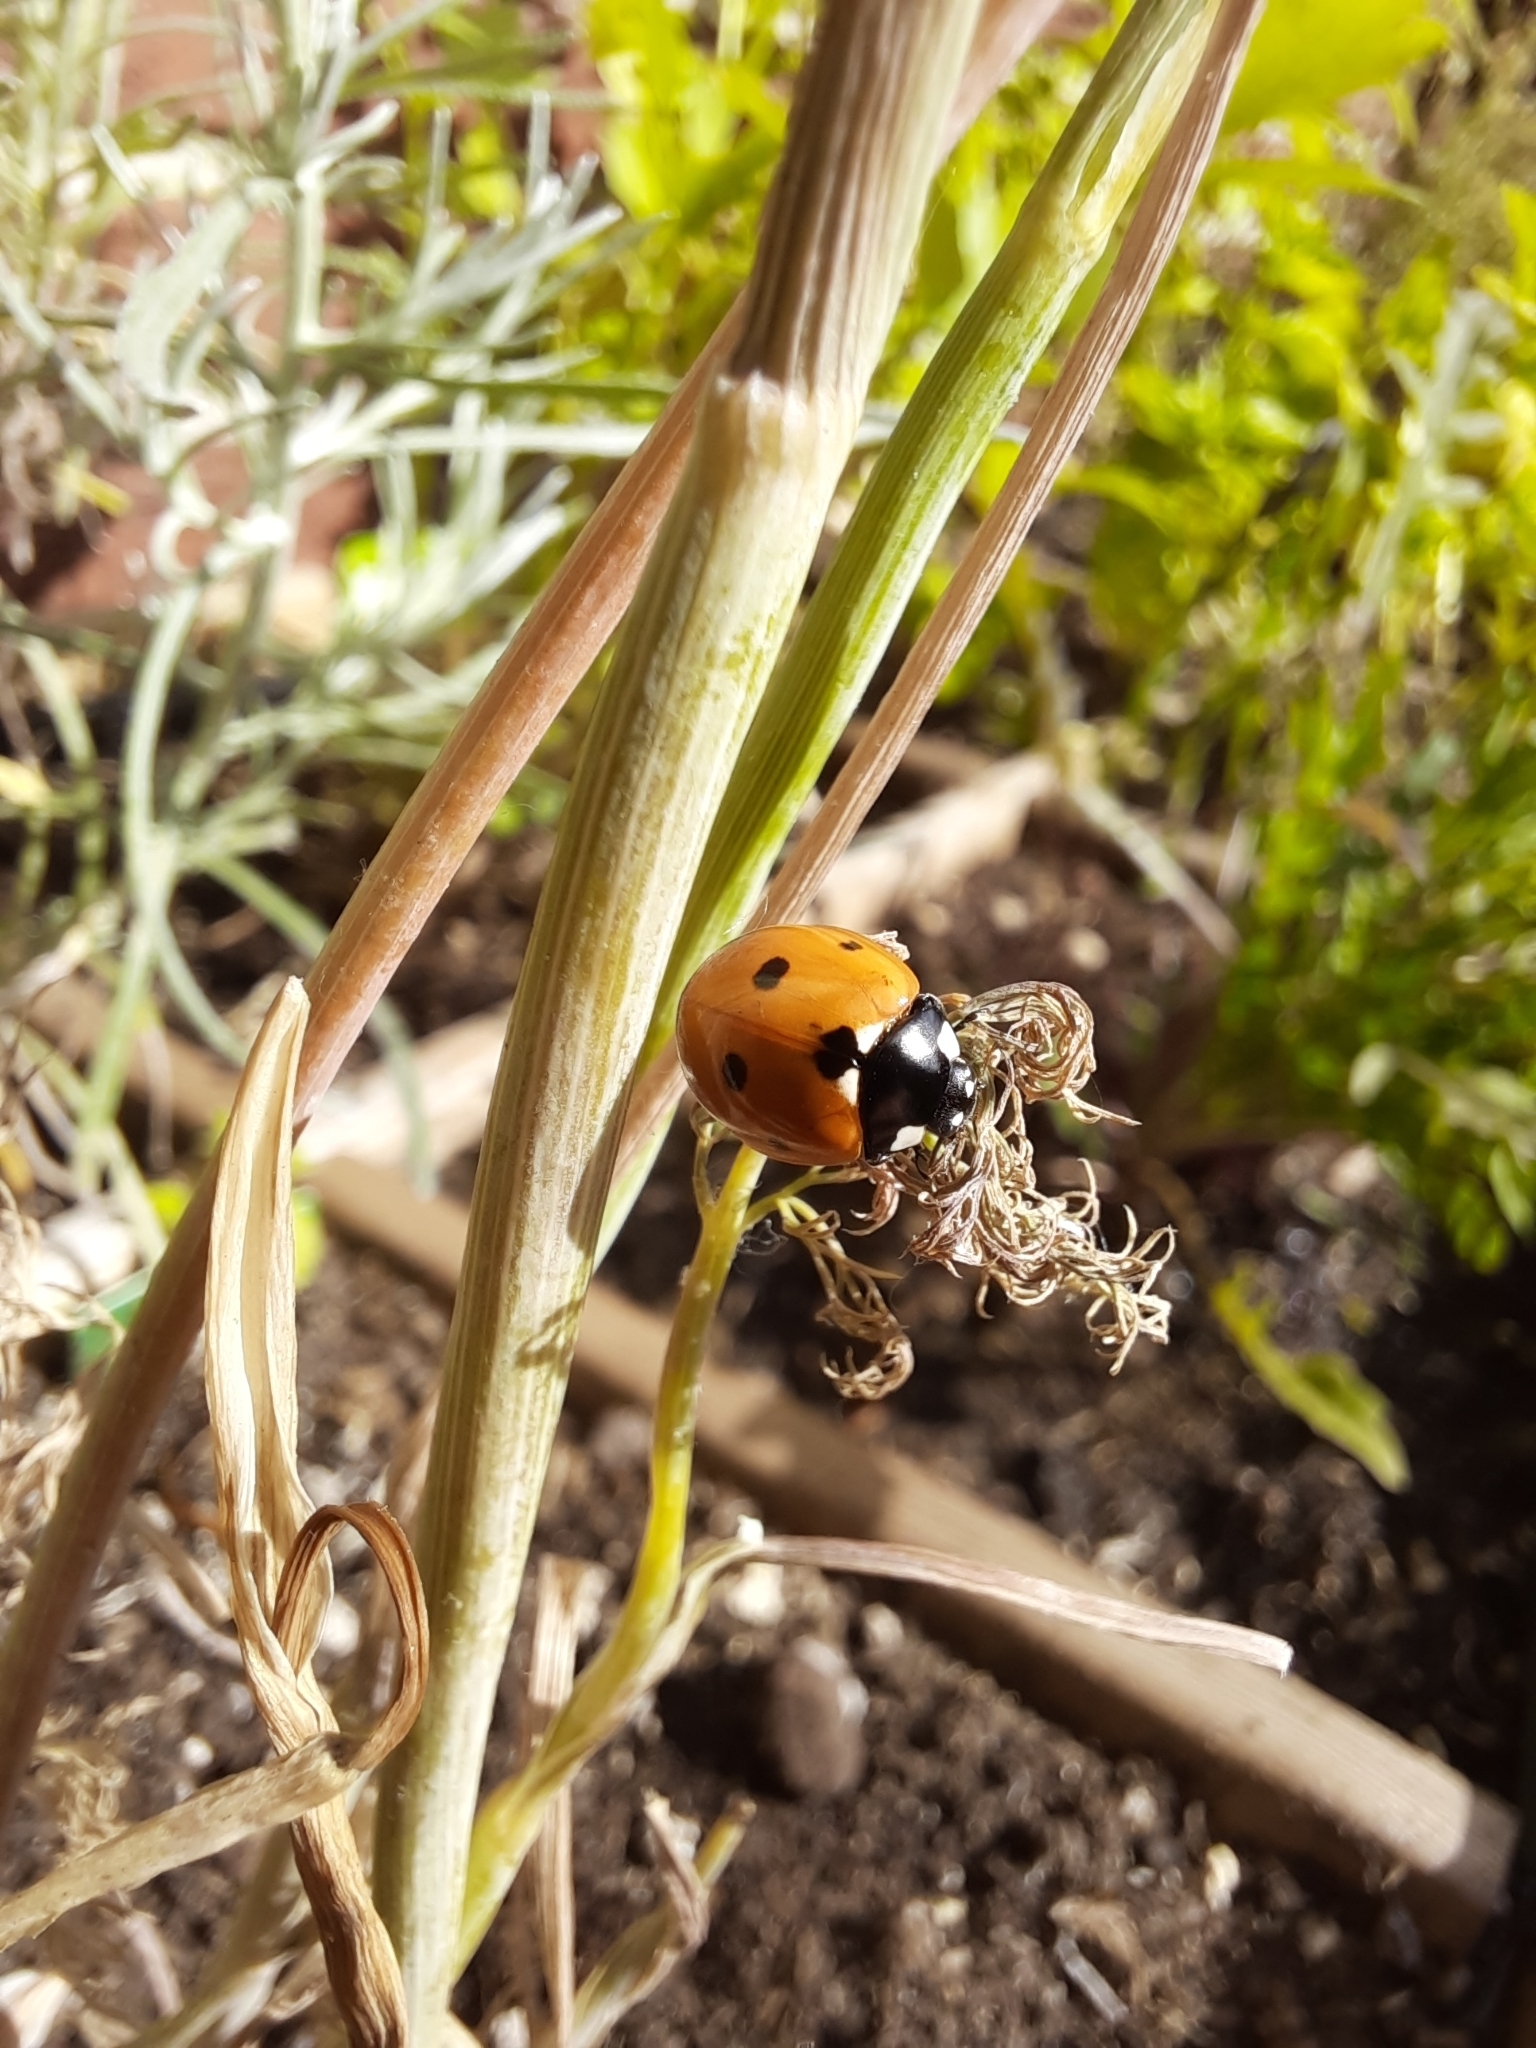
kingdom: Animalia
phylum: Arthropoda
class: Insecta
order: Coleoptera
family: Coccinellidae
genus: Coccinella
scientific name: Coccinella septempunctata
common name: Sevenspotted lady beetle
